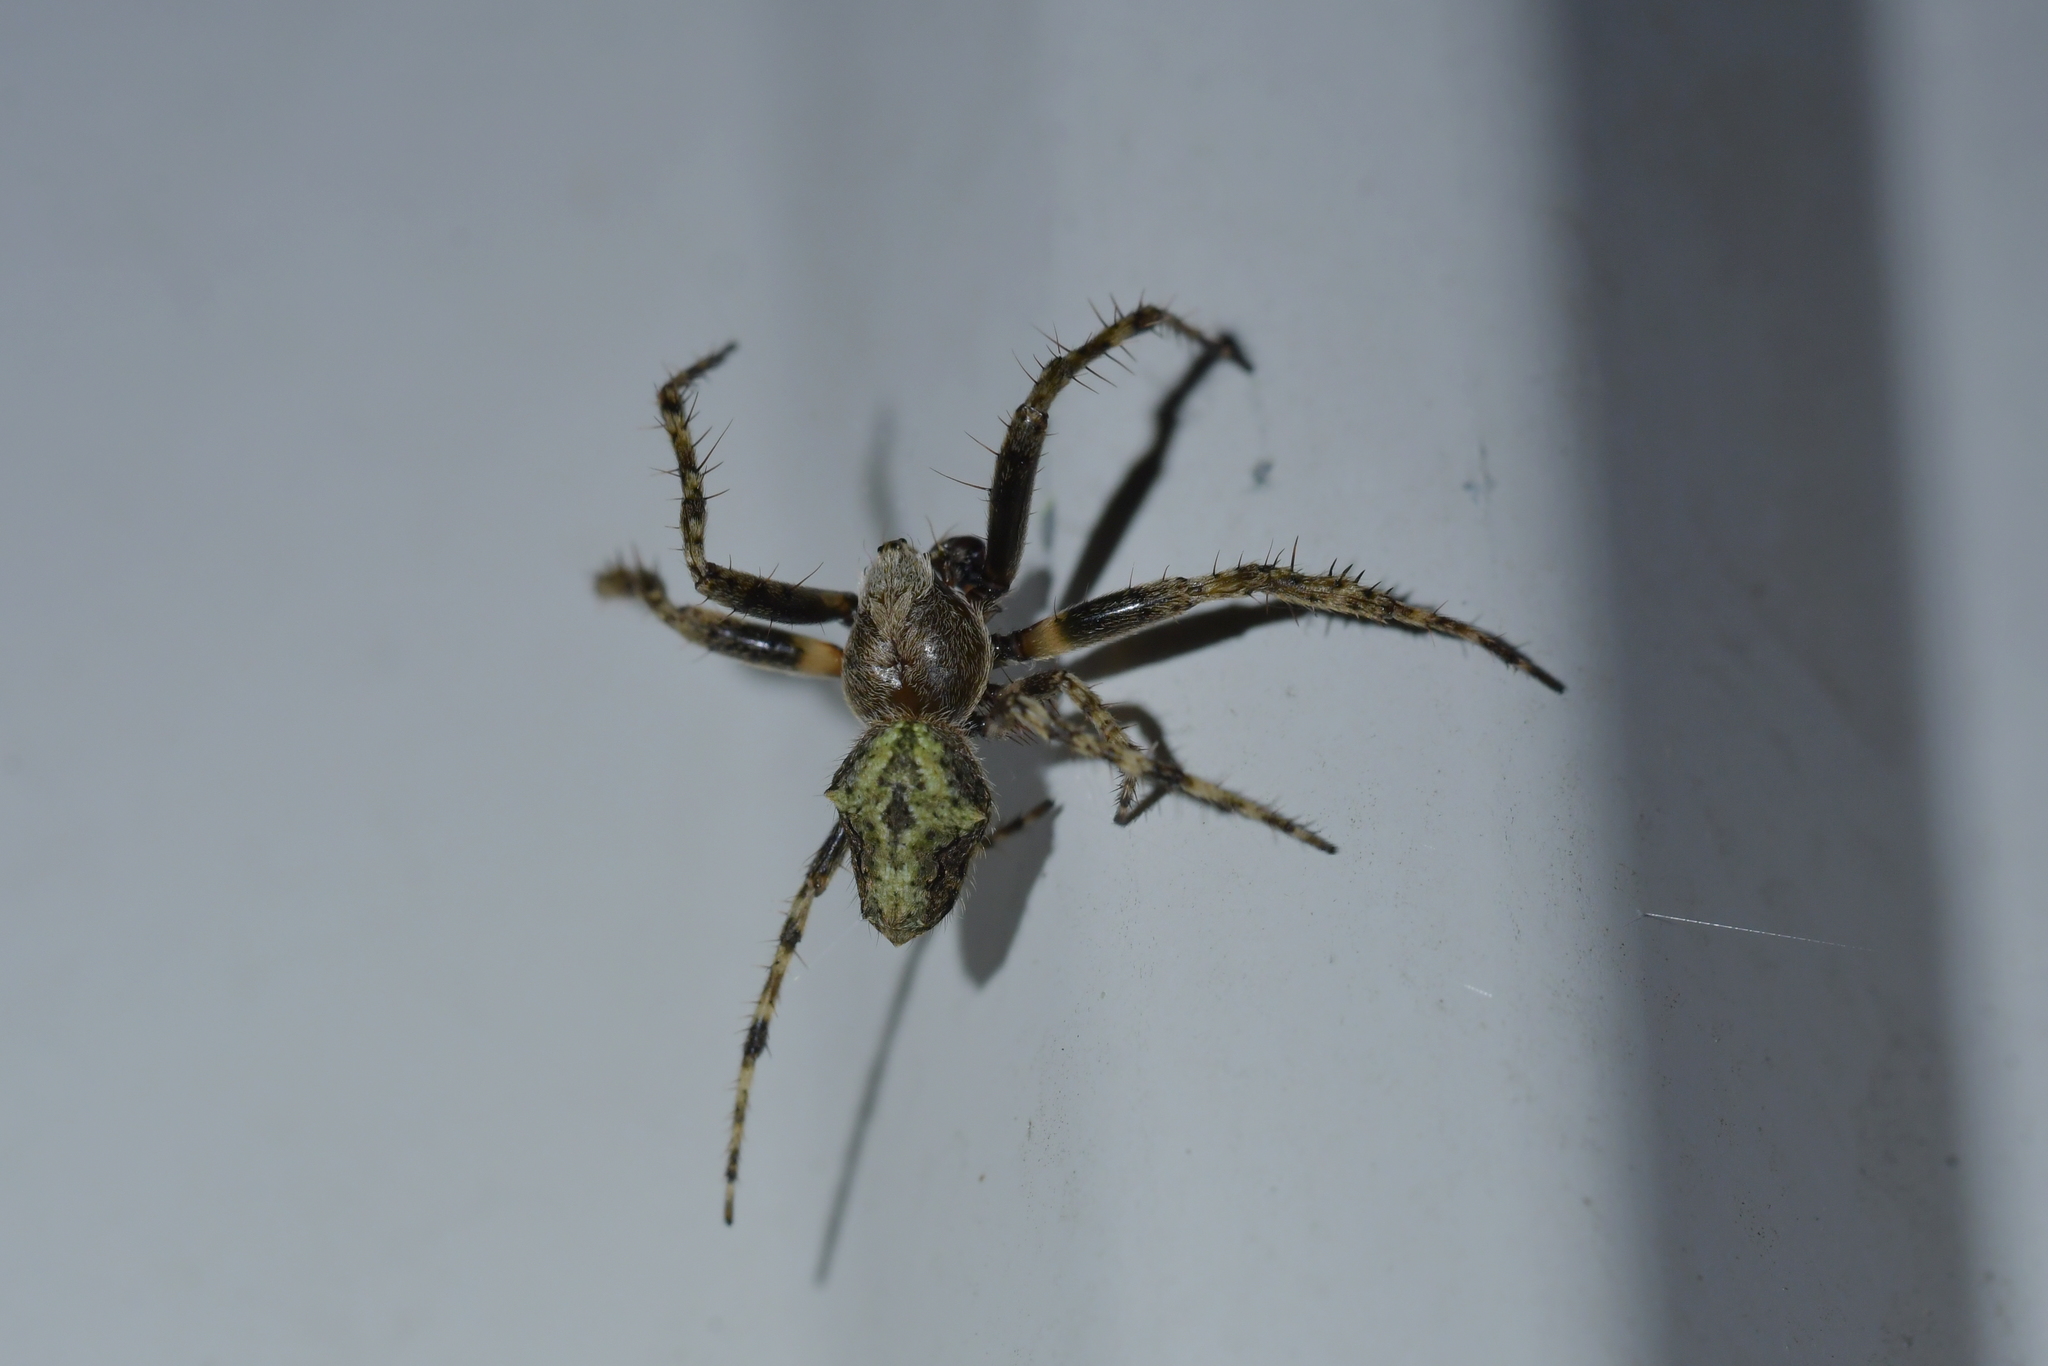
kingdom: Animalia
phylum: Arthropoda
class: Arachnida
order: Araneae
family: Araneidae
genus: Eriophora
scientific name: Eriophora pustulosa
